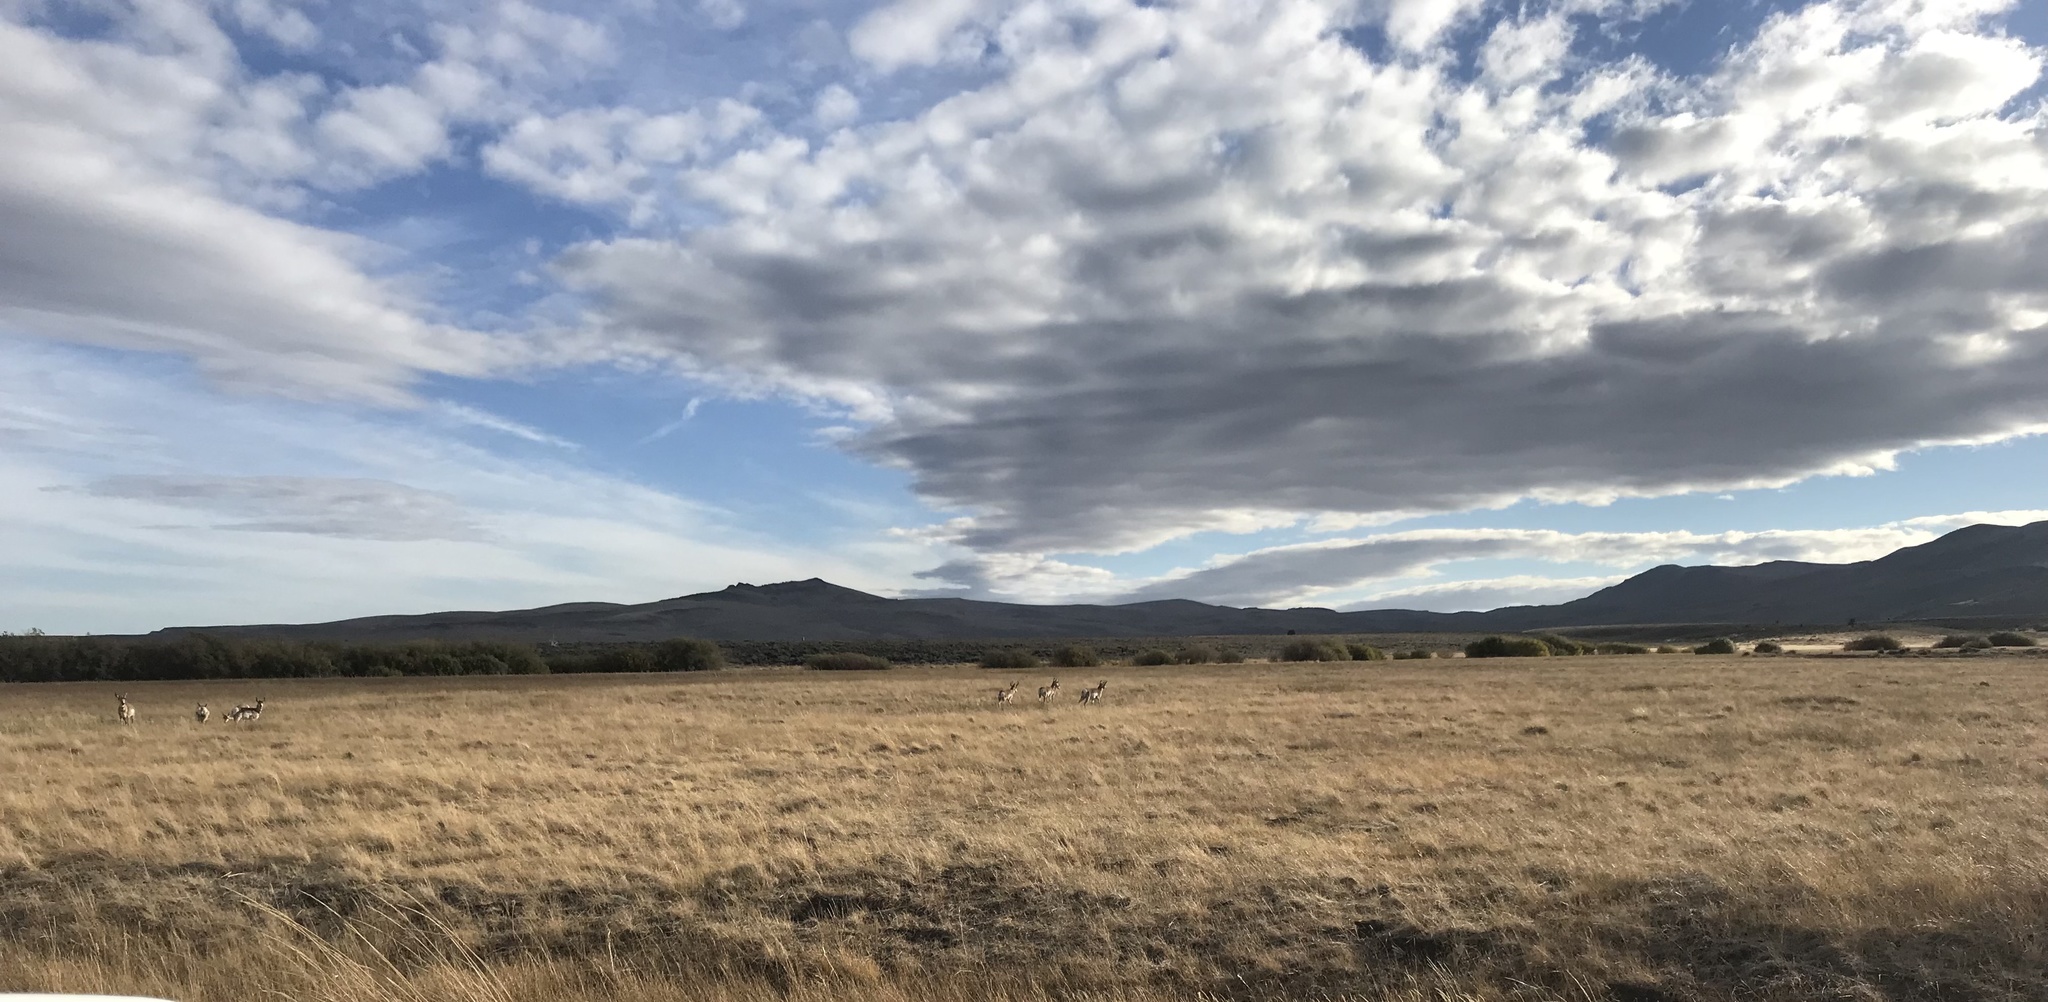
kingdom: Animalia
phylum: Chordata
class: Mammalia
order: Artiodactyla
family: Antilocapridae
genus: Antilocapra
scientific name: Antilocapra americana
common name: Pronghorn
